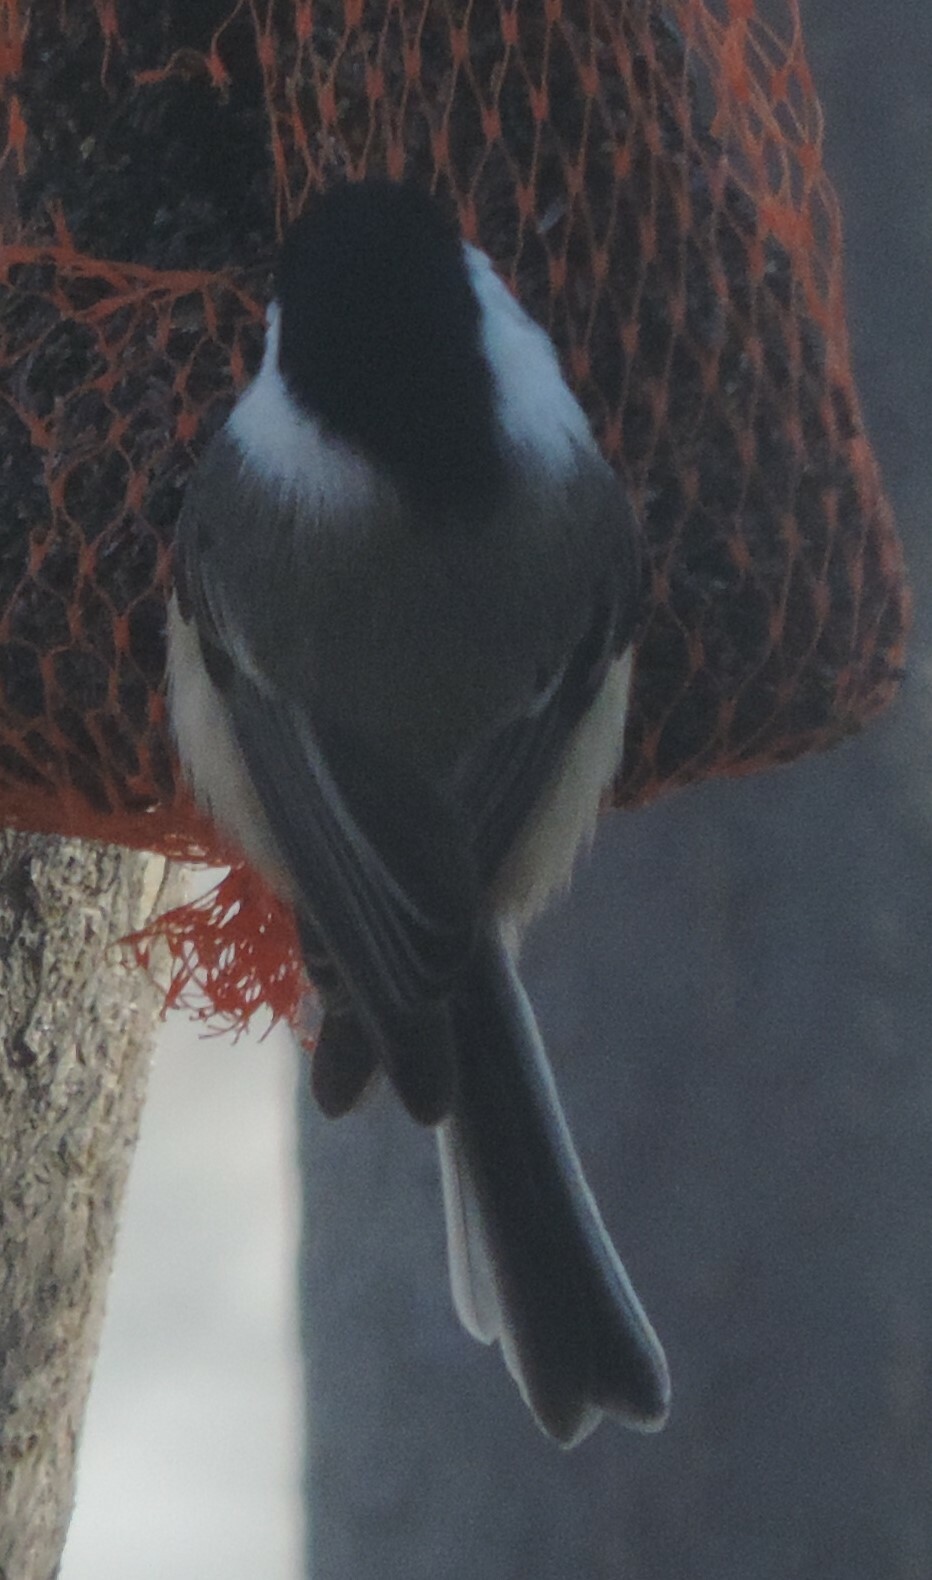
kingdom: Animalia
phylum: Chordata
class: Aves
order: Passeriformes
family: Paridae
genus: Poecile
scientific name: Poecile atricapillus
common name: Black-capped chickadee
